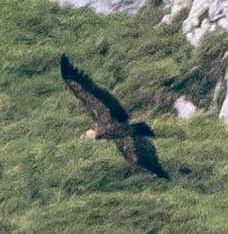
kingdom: Animalia
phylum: Chordata
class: Aves
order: Accipitriformes
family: Accipitridae
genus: Gyps
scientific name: Gyps fulvus
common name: Griffon vulture
